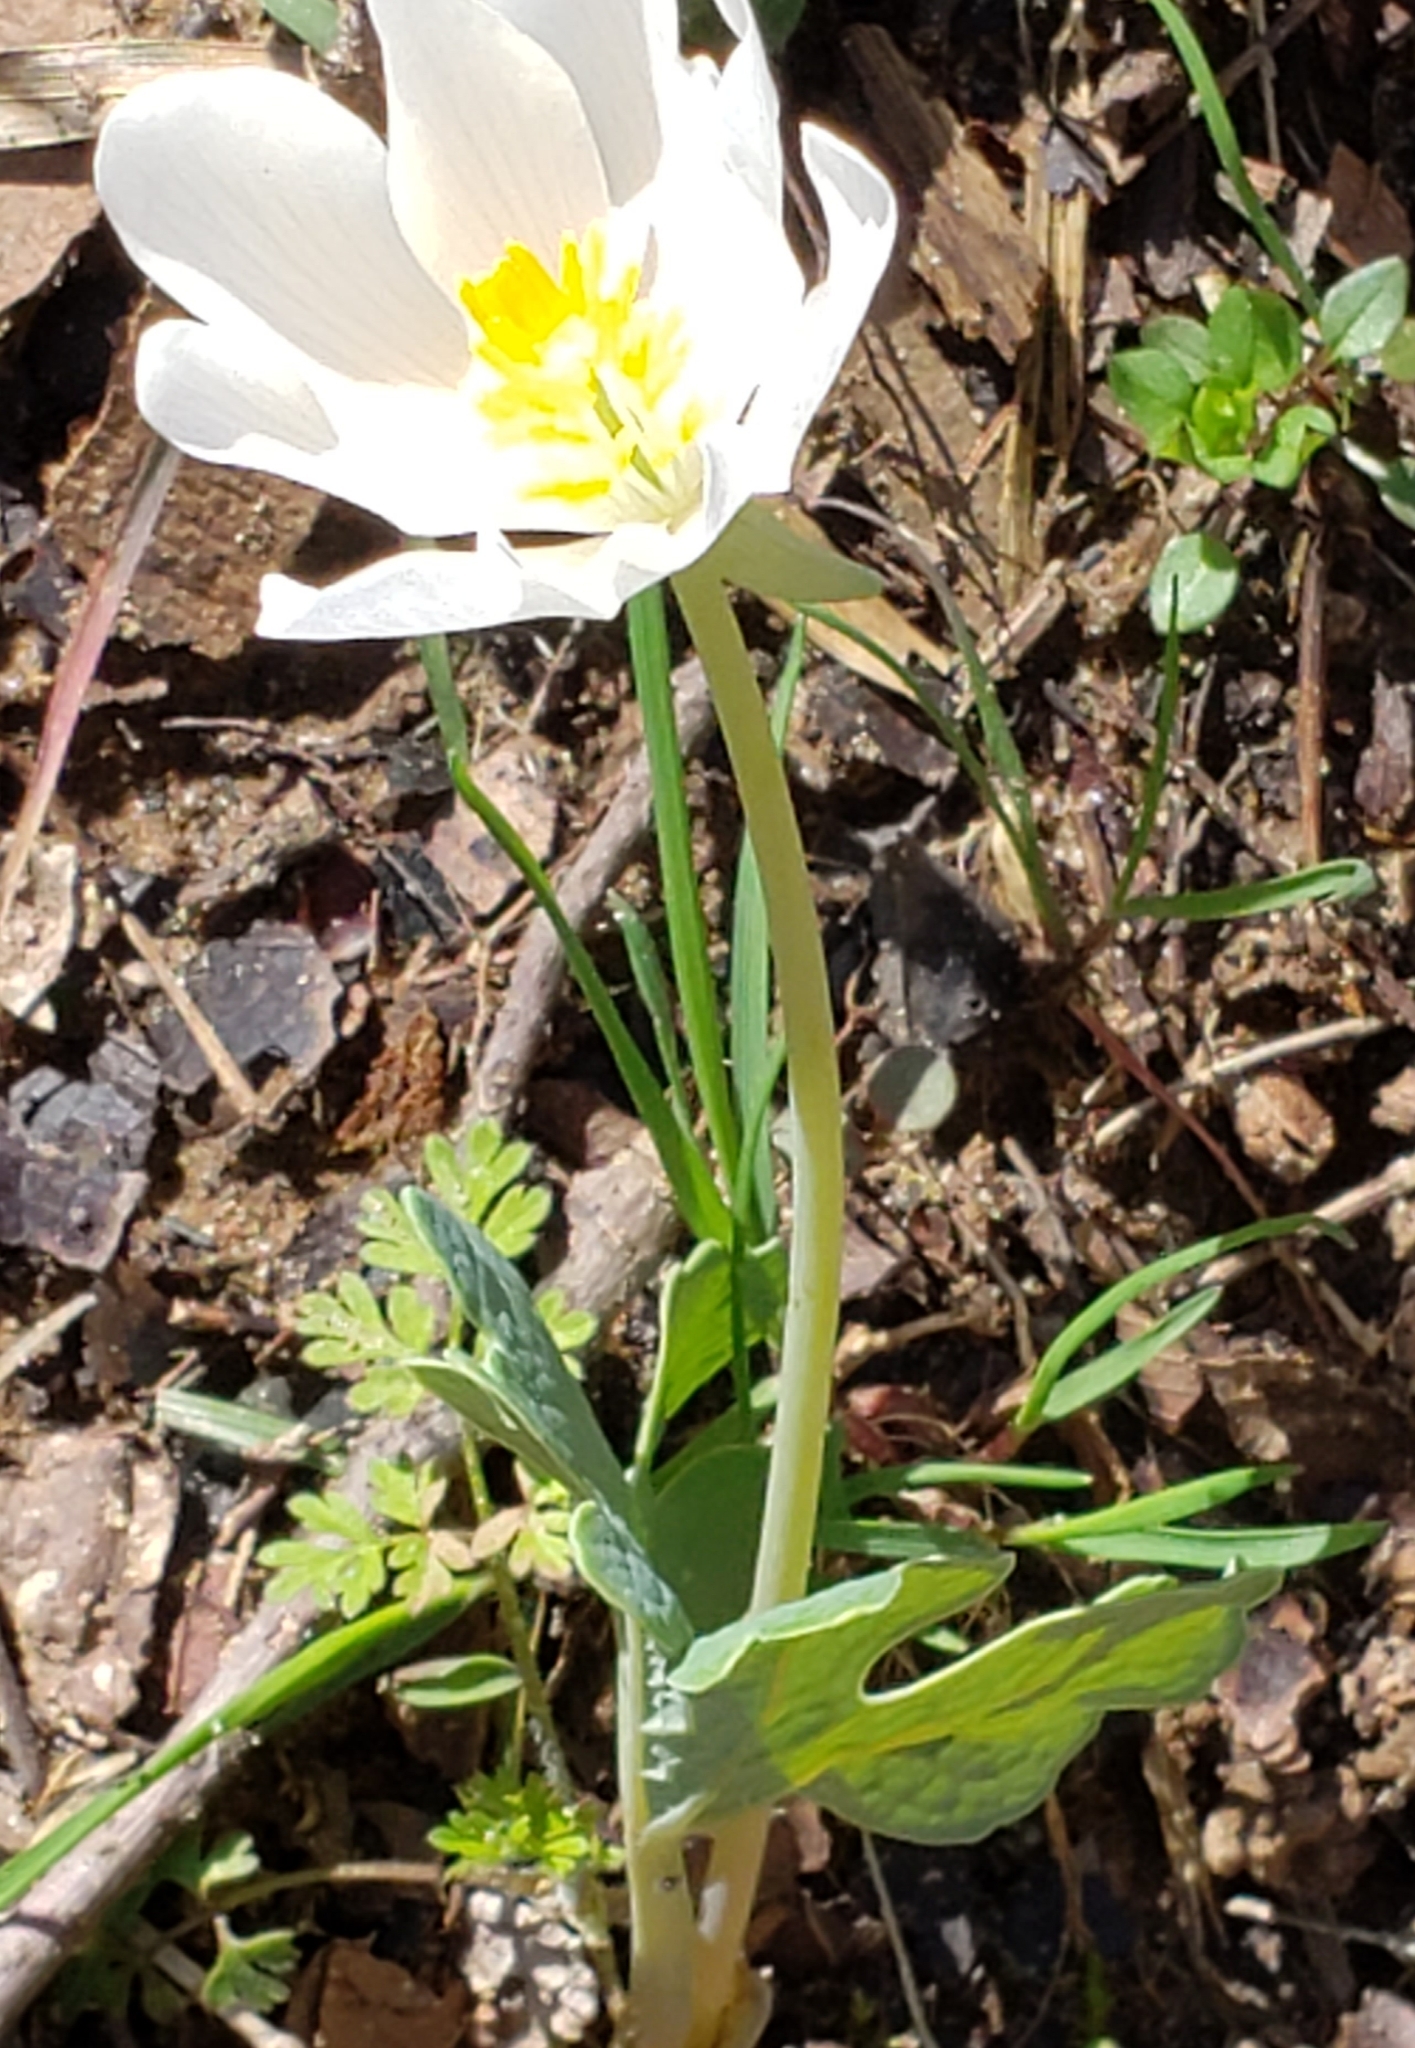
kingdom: Plantae
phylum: Tracheophyta
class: Magnoliopsida
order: Ranunculales
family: Papaveraceae
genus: Sanguinaria
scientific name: Sanguinaria canadensis
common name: Bloodroot
